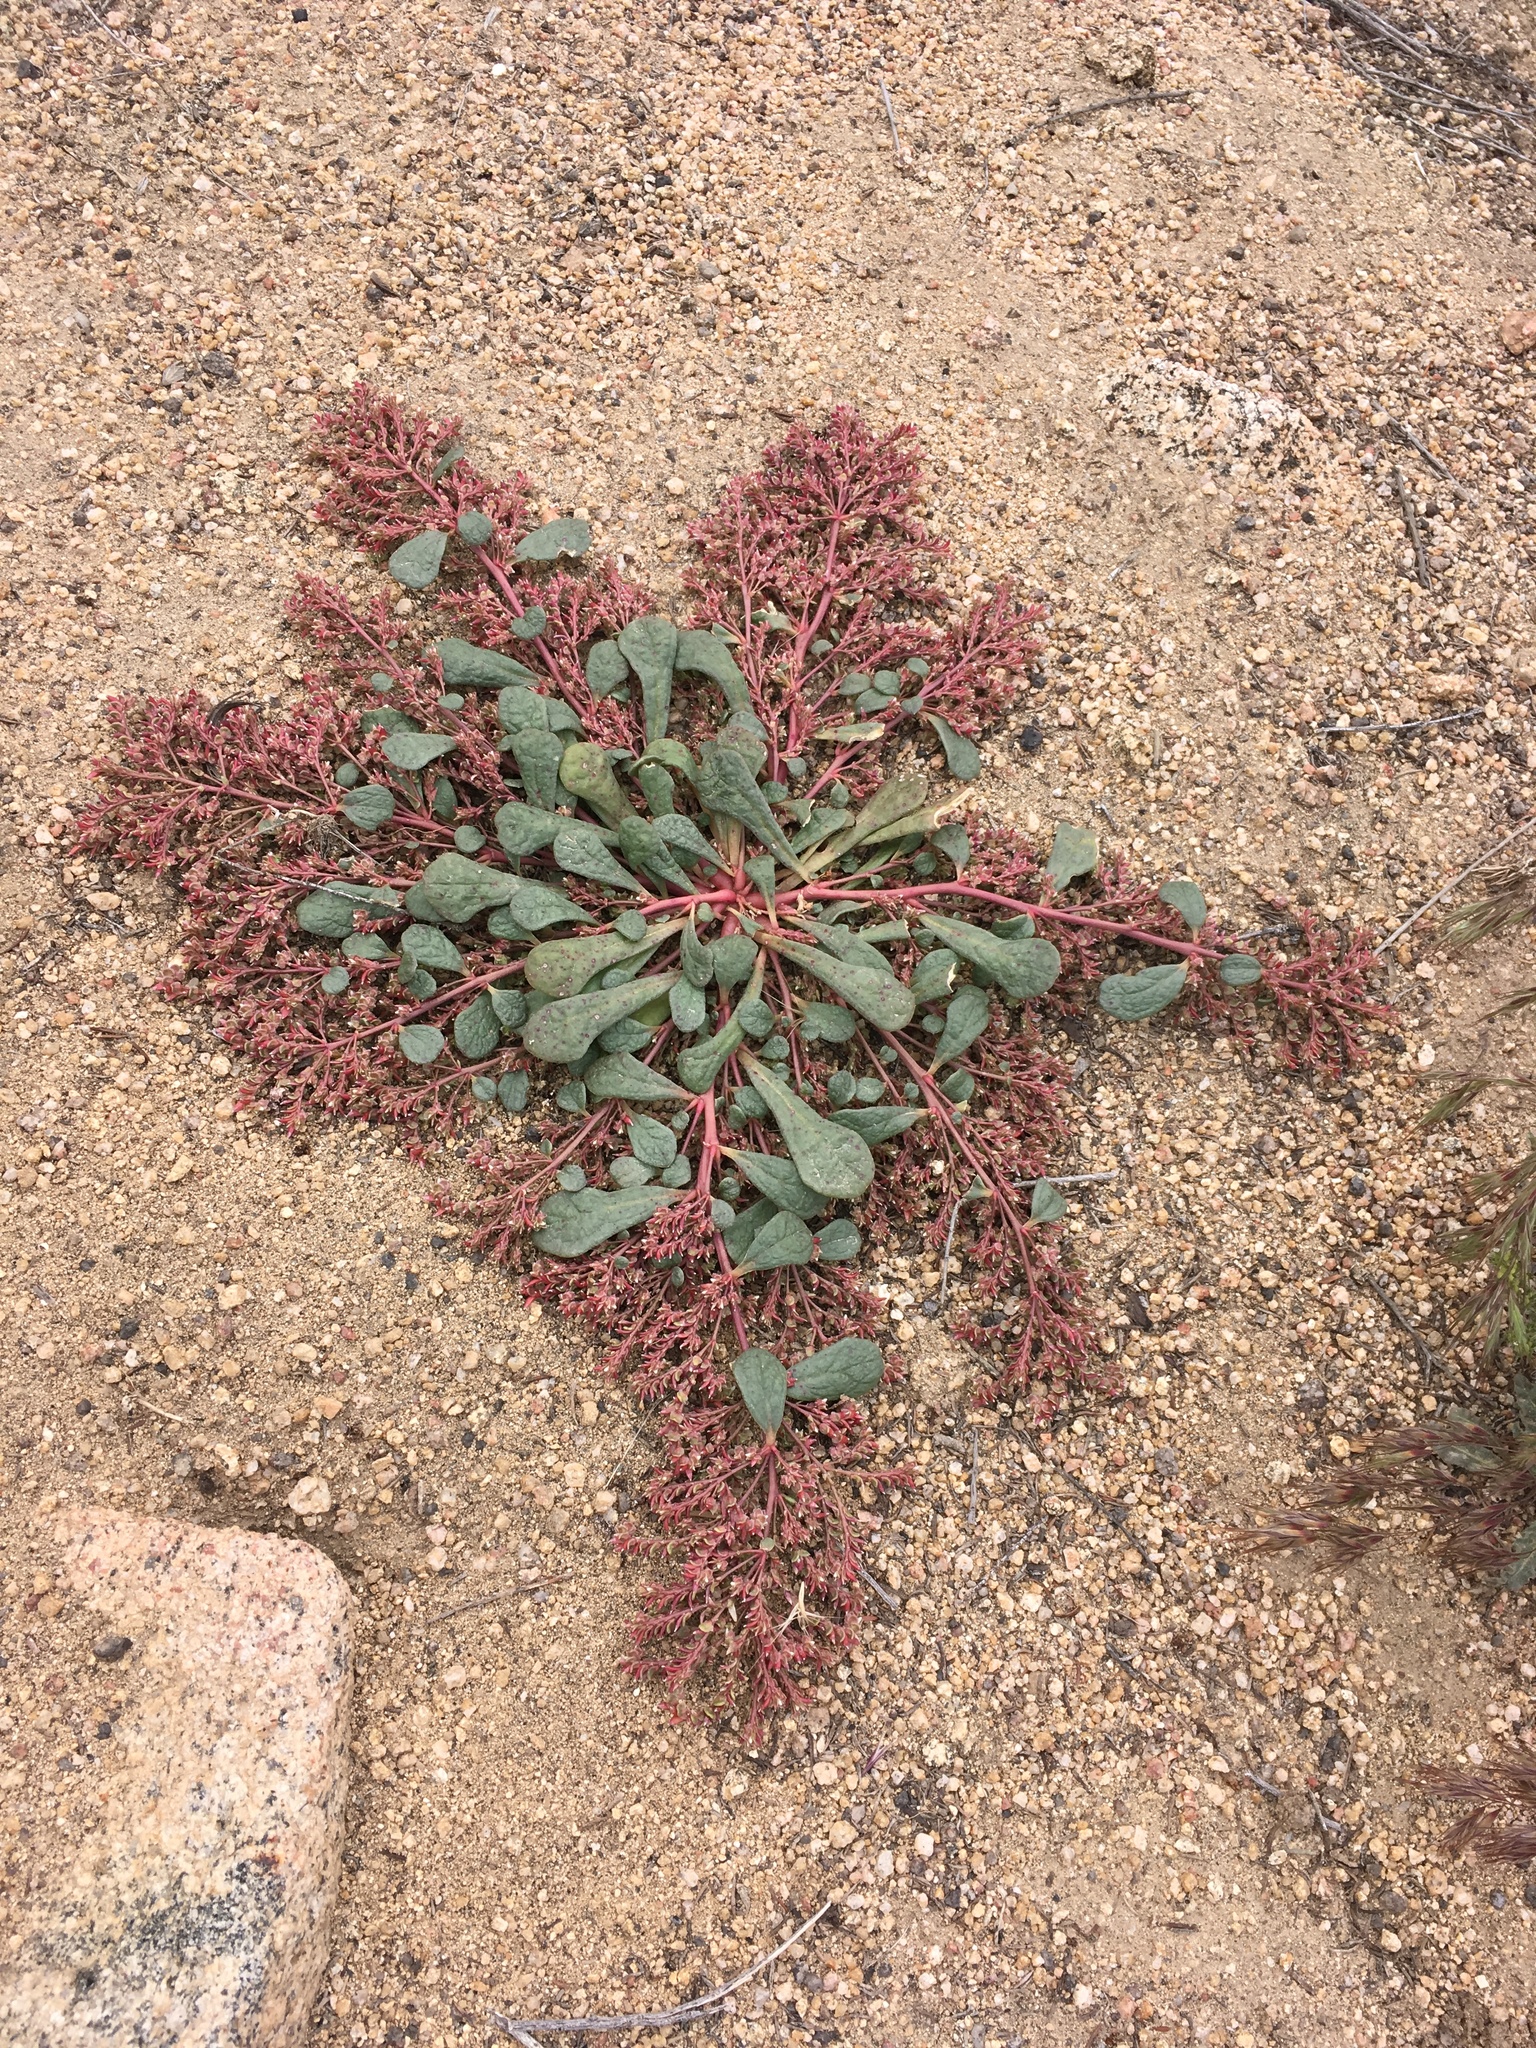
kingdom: Plantae
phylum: Tracheophyta
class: Magnoliopsida
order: Caryophyllales
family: Montiaceae
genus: Calyptridium
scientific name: Calyptridium monandrum
